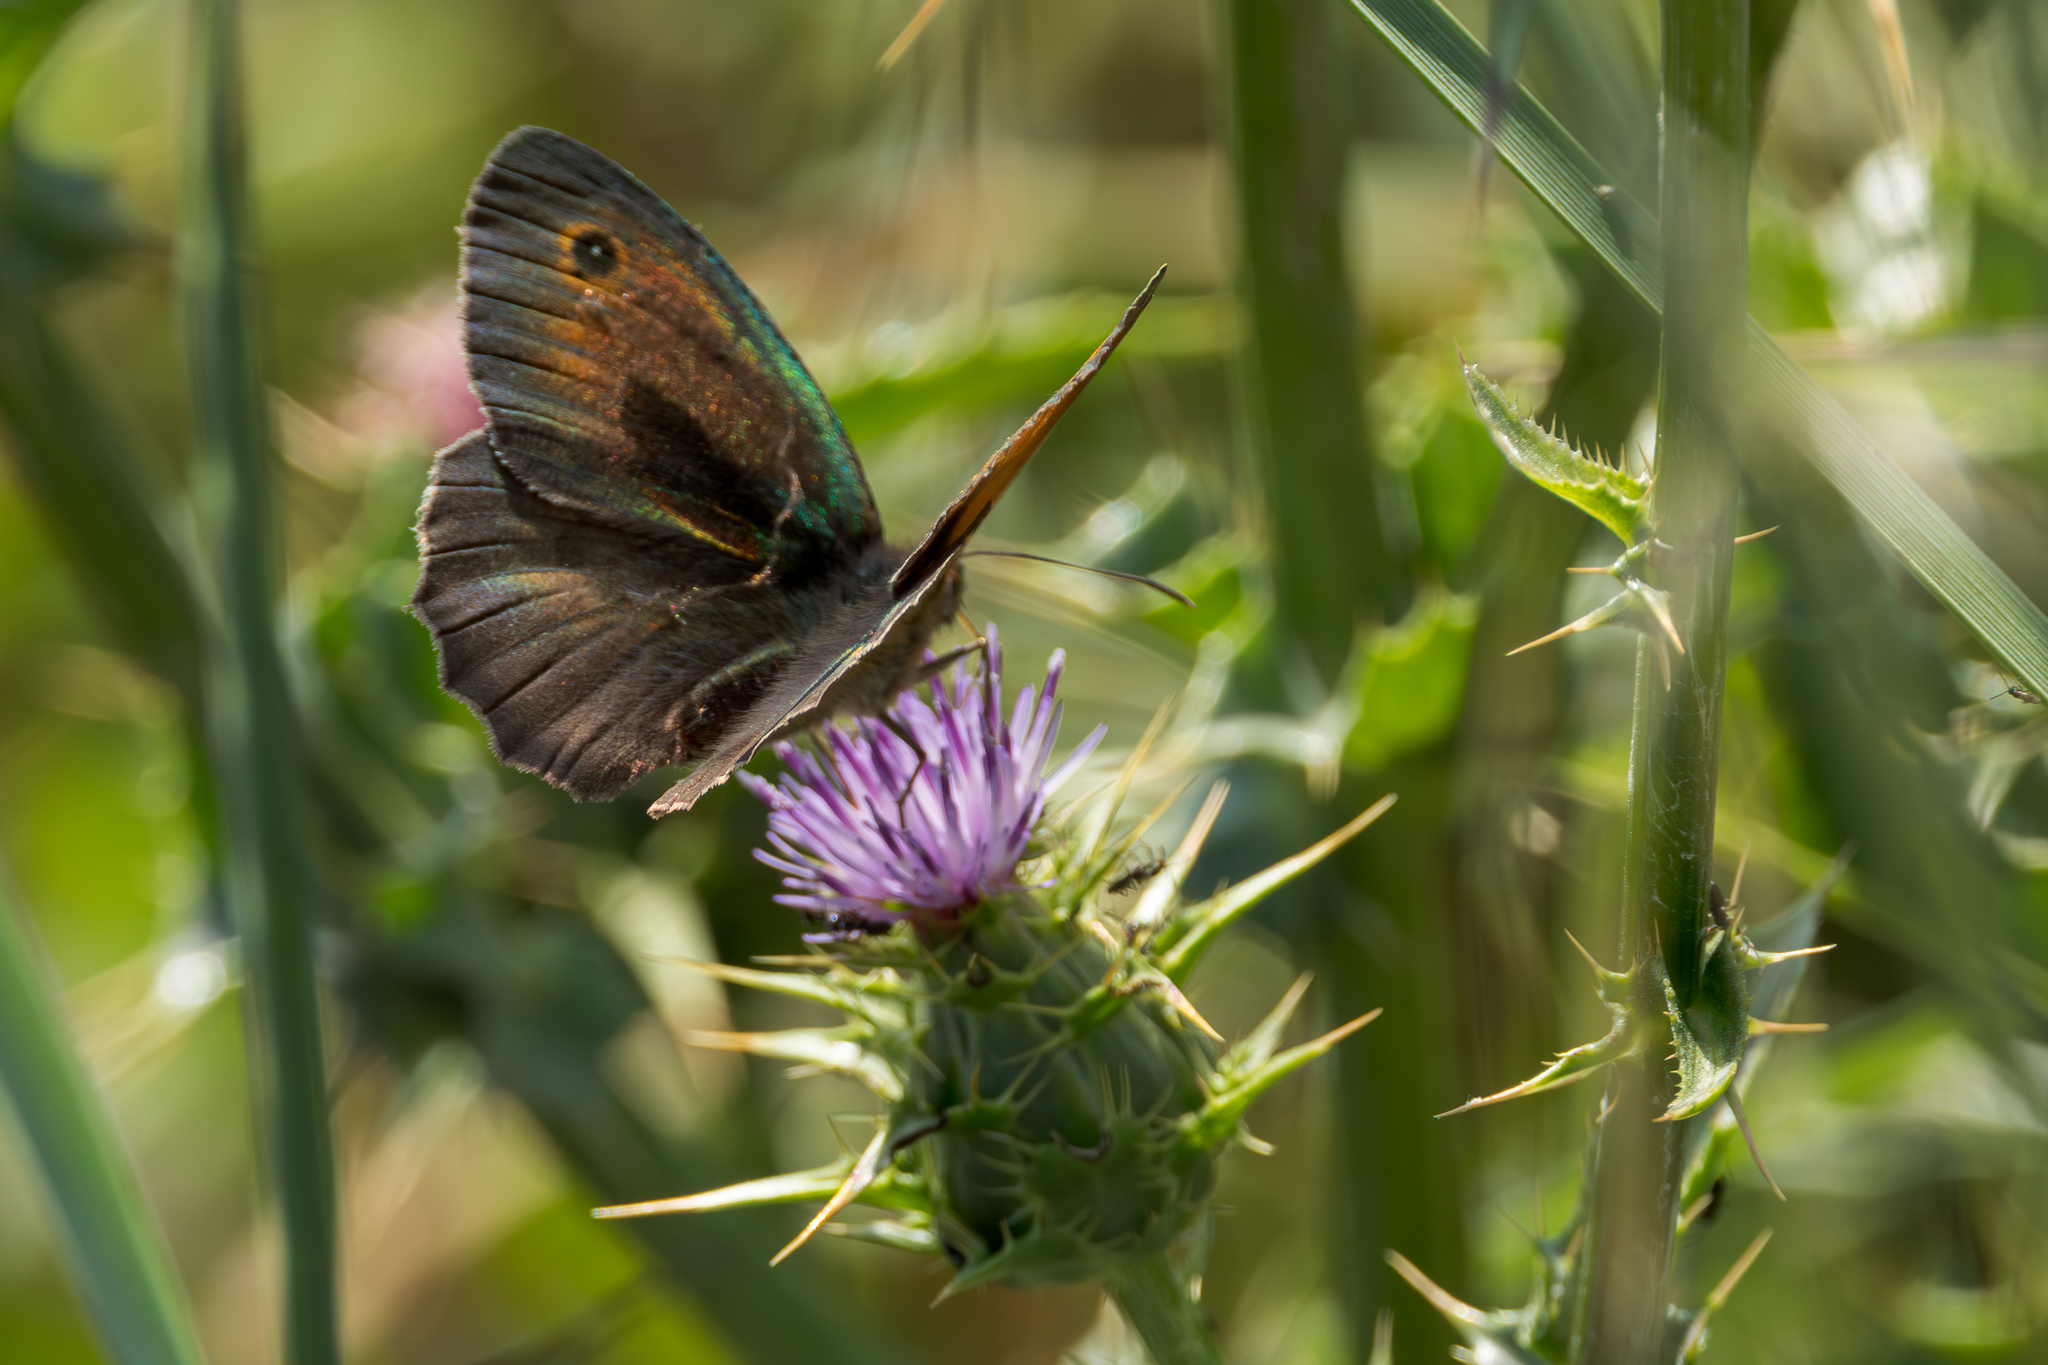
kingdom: Animalia
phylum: Arthropoda
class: Insecta
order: Lepidoptera
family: Nymphalidae
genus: Maniola
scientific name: Maniola jurtina
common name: Meadow brown
